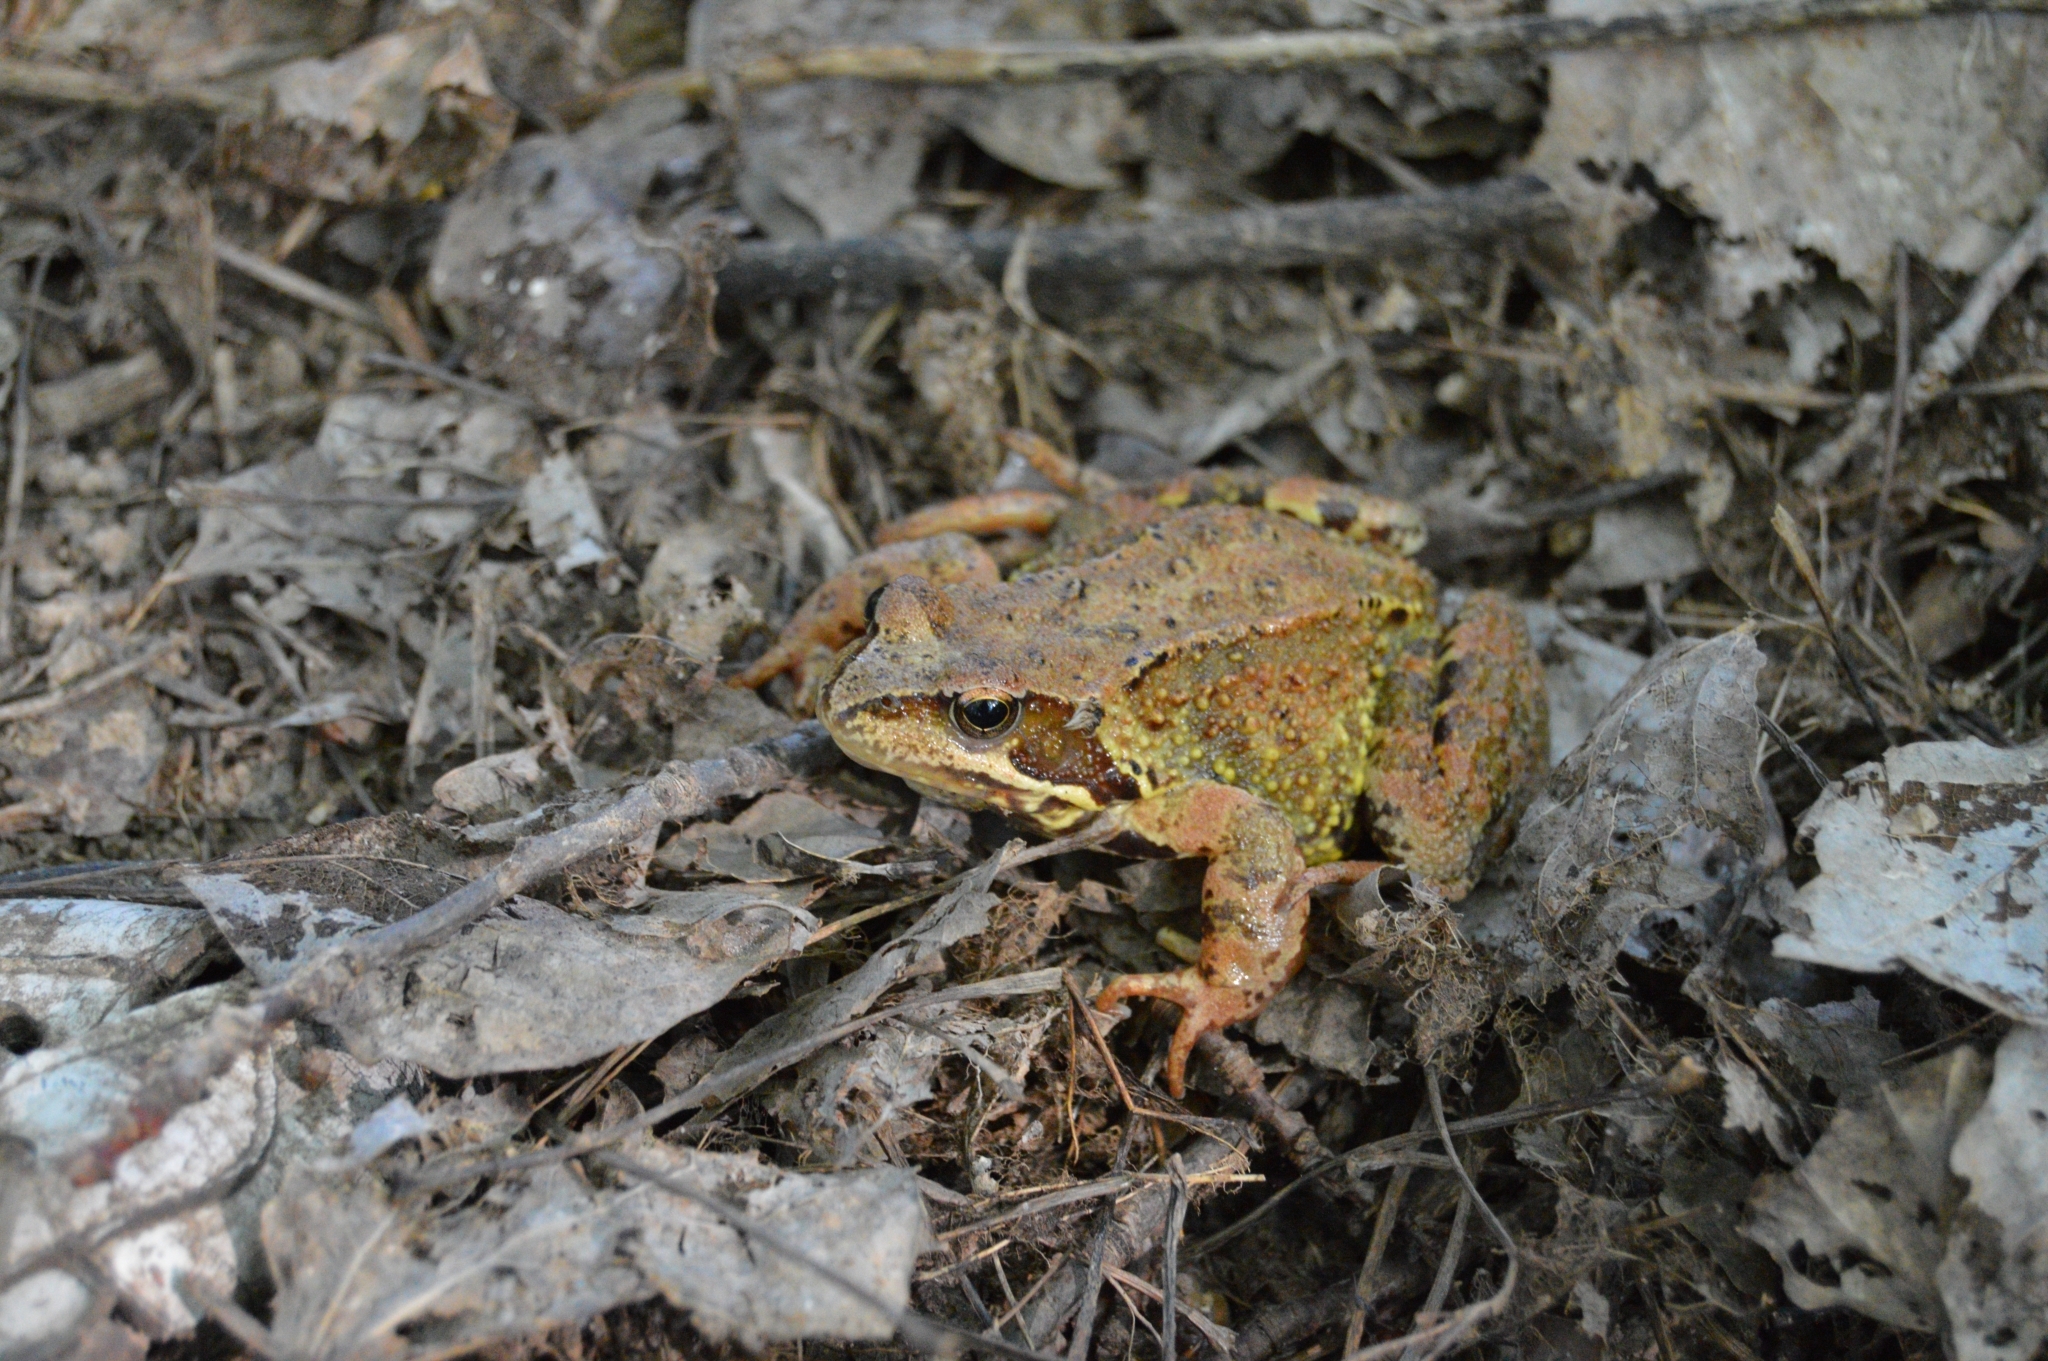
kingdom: Animalia
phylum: Chordata
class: Amphibia
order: Anura
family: Ranidae
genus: Rana
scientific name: Rana temporaria
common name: Common frog
